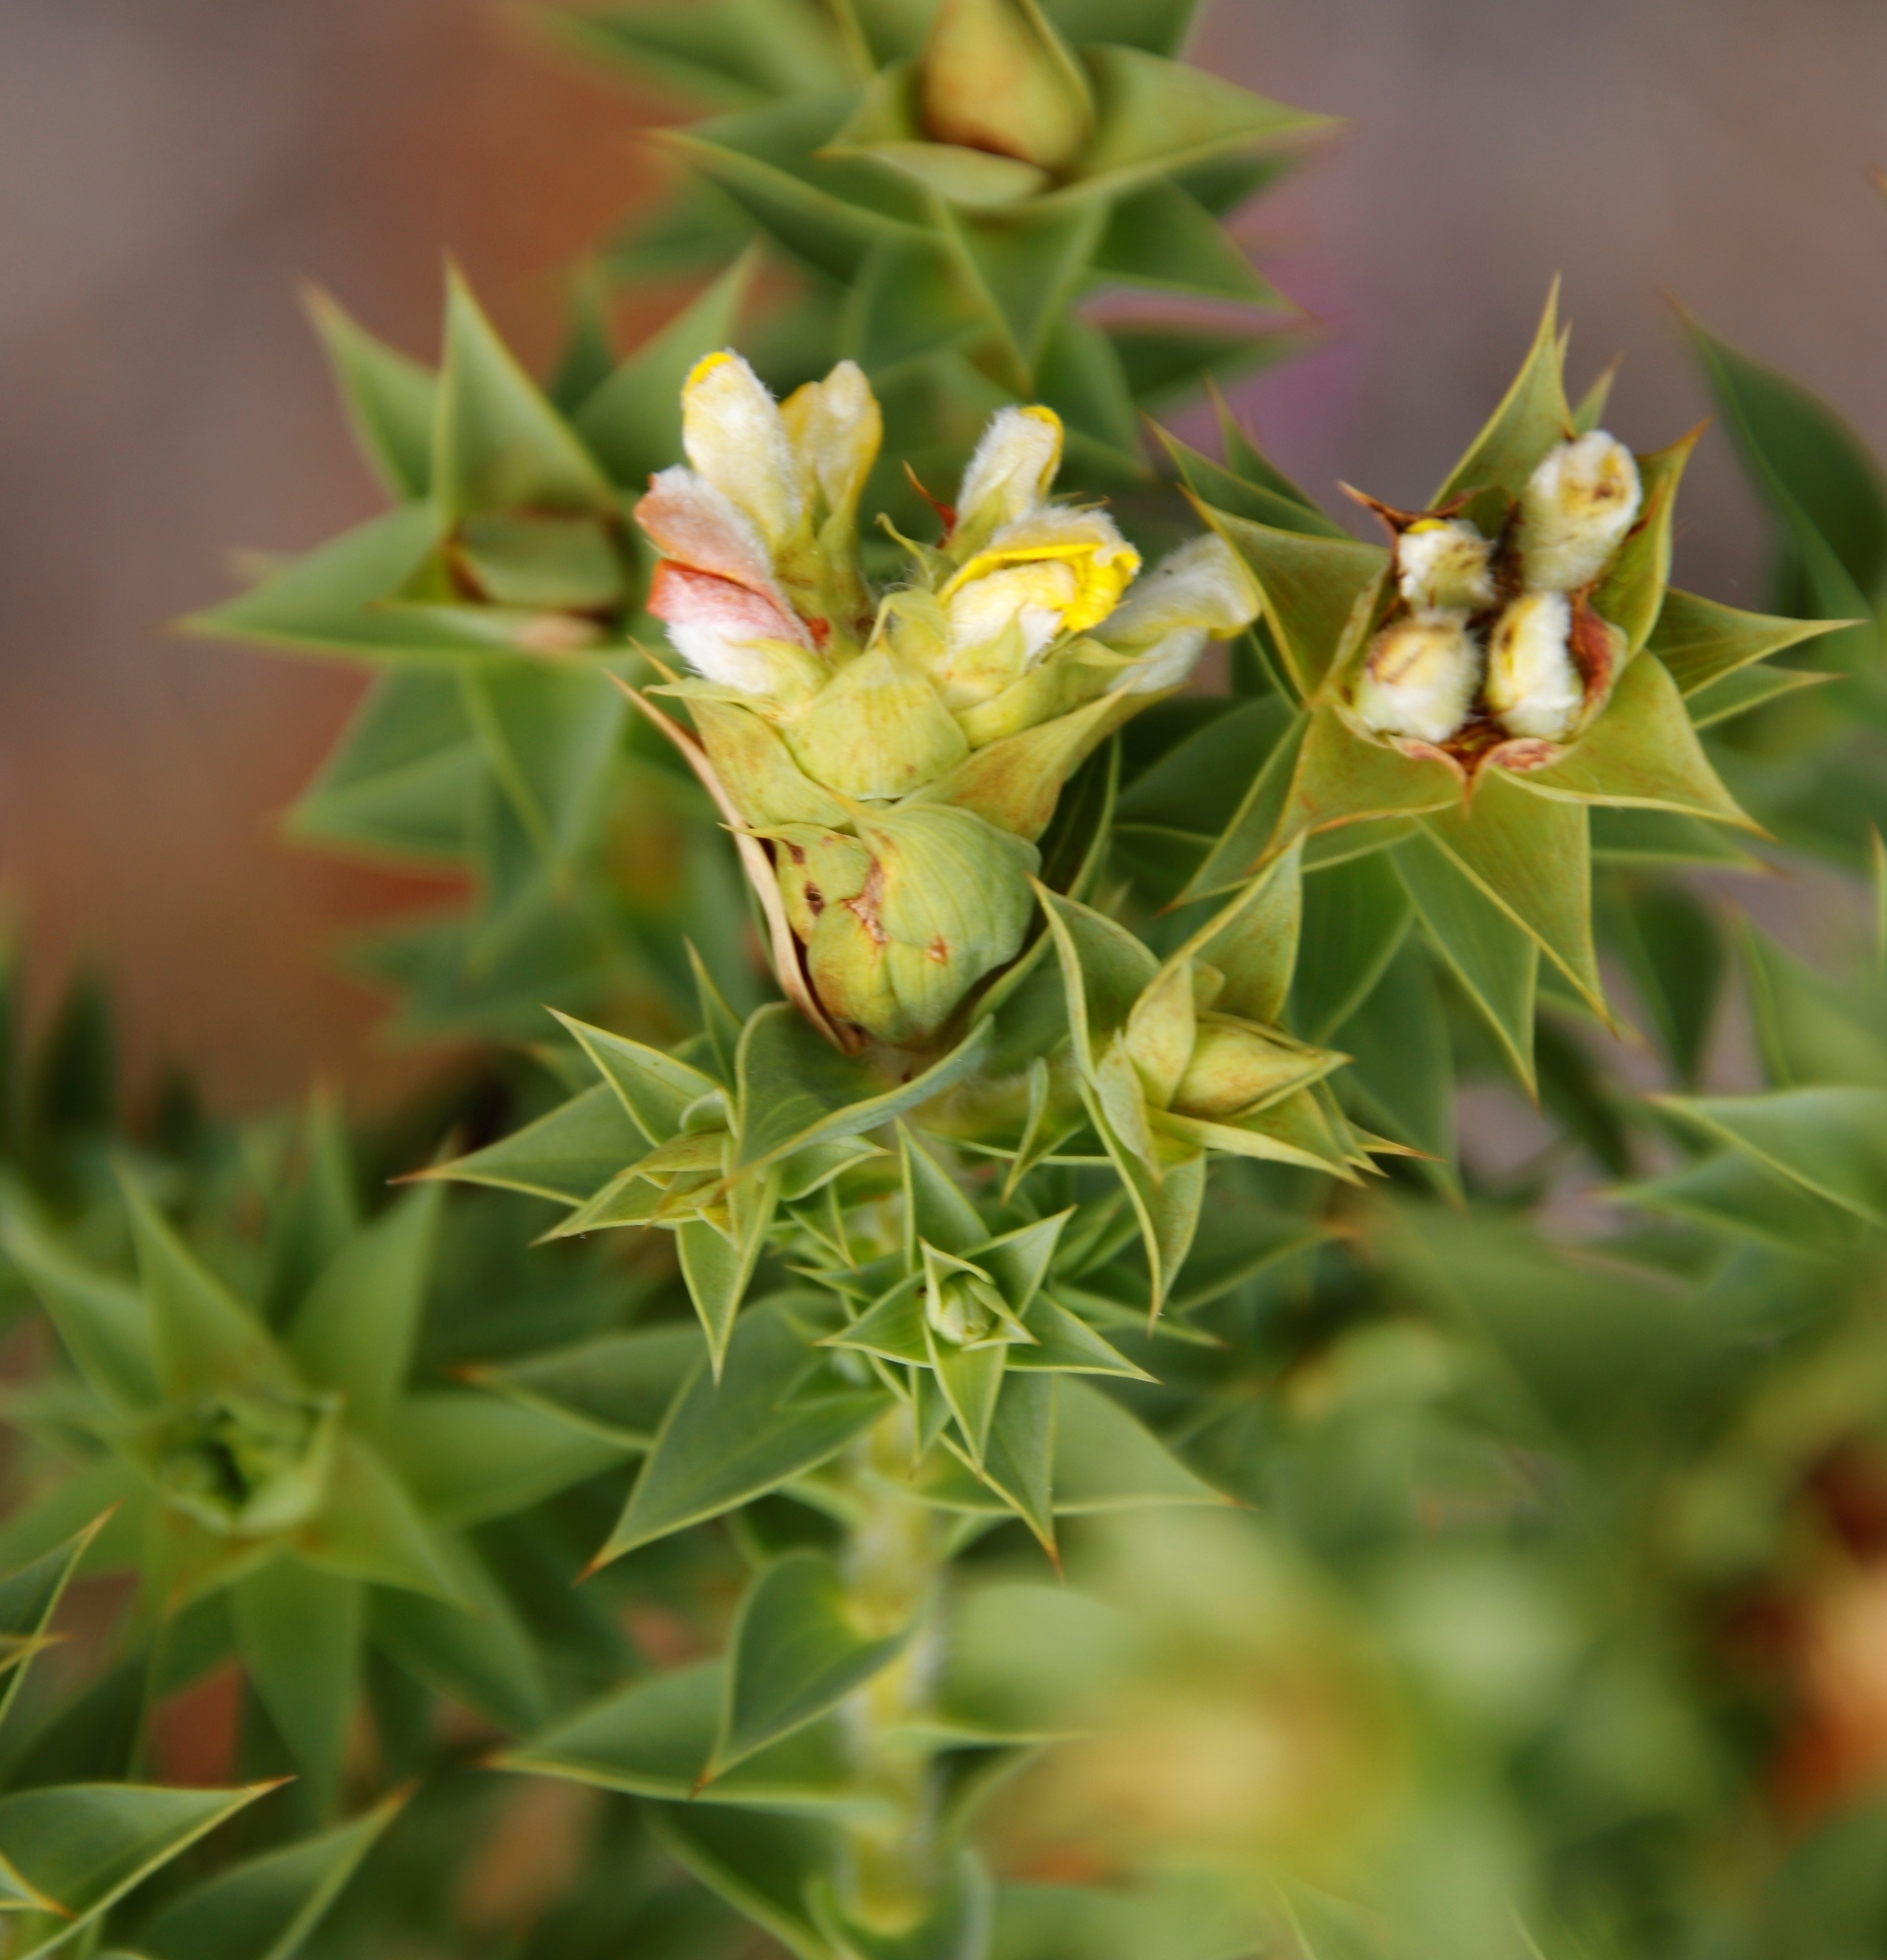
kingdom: Plantae
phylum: Tracheophyta
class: Magnoliopsida
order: Fabales
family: Fabaceae
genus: Aspalathus
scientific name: Aspalathus cordata
